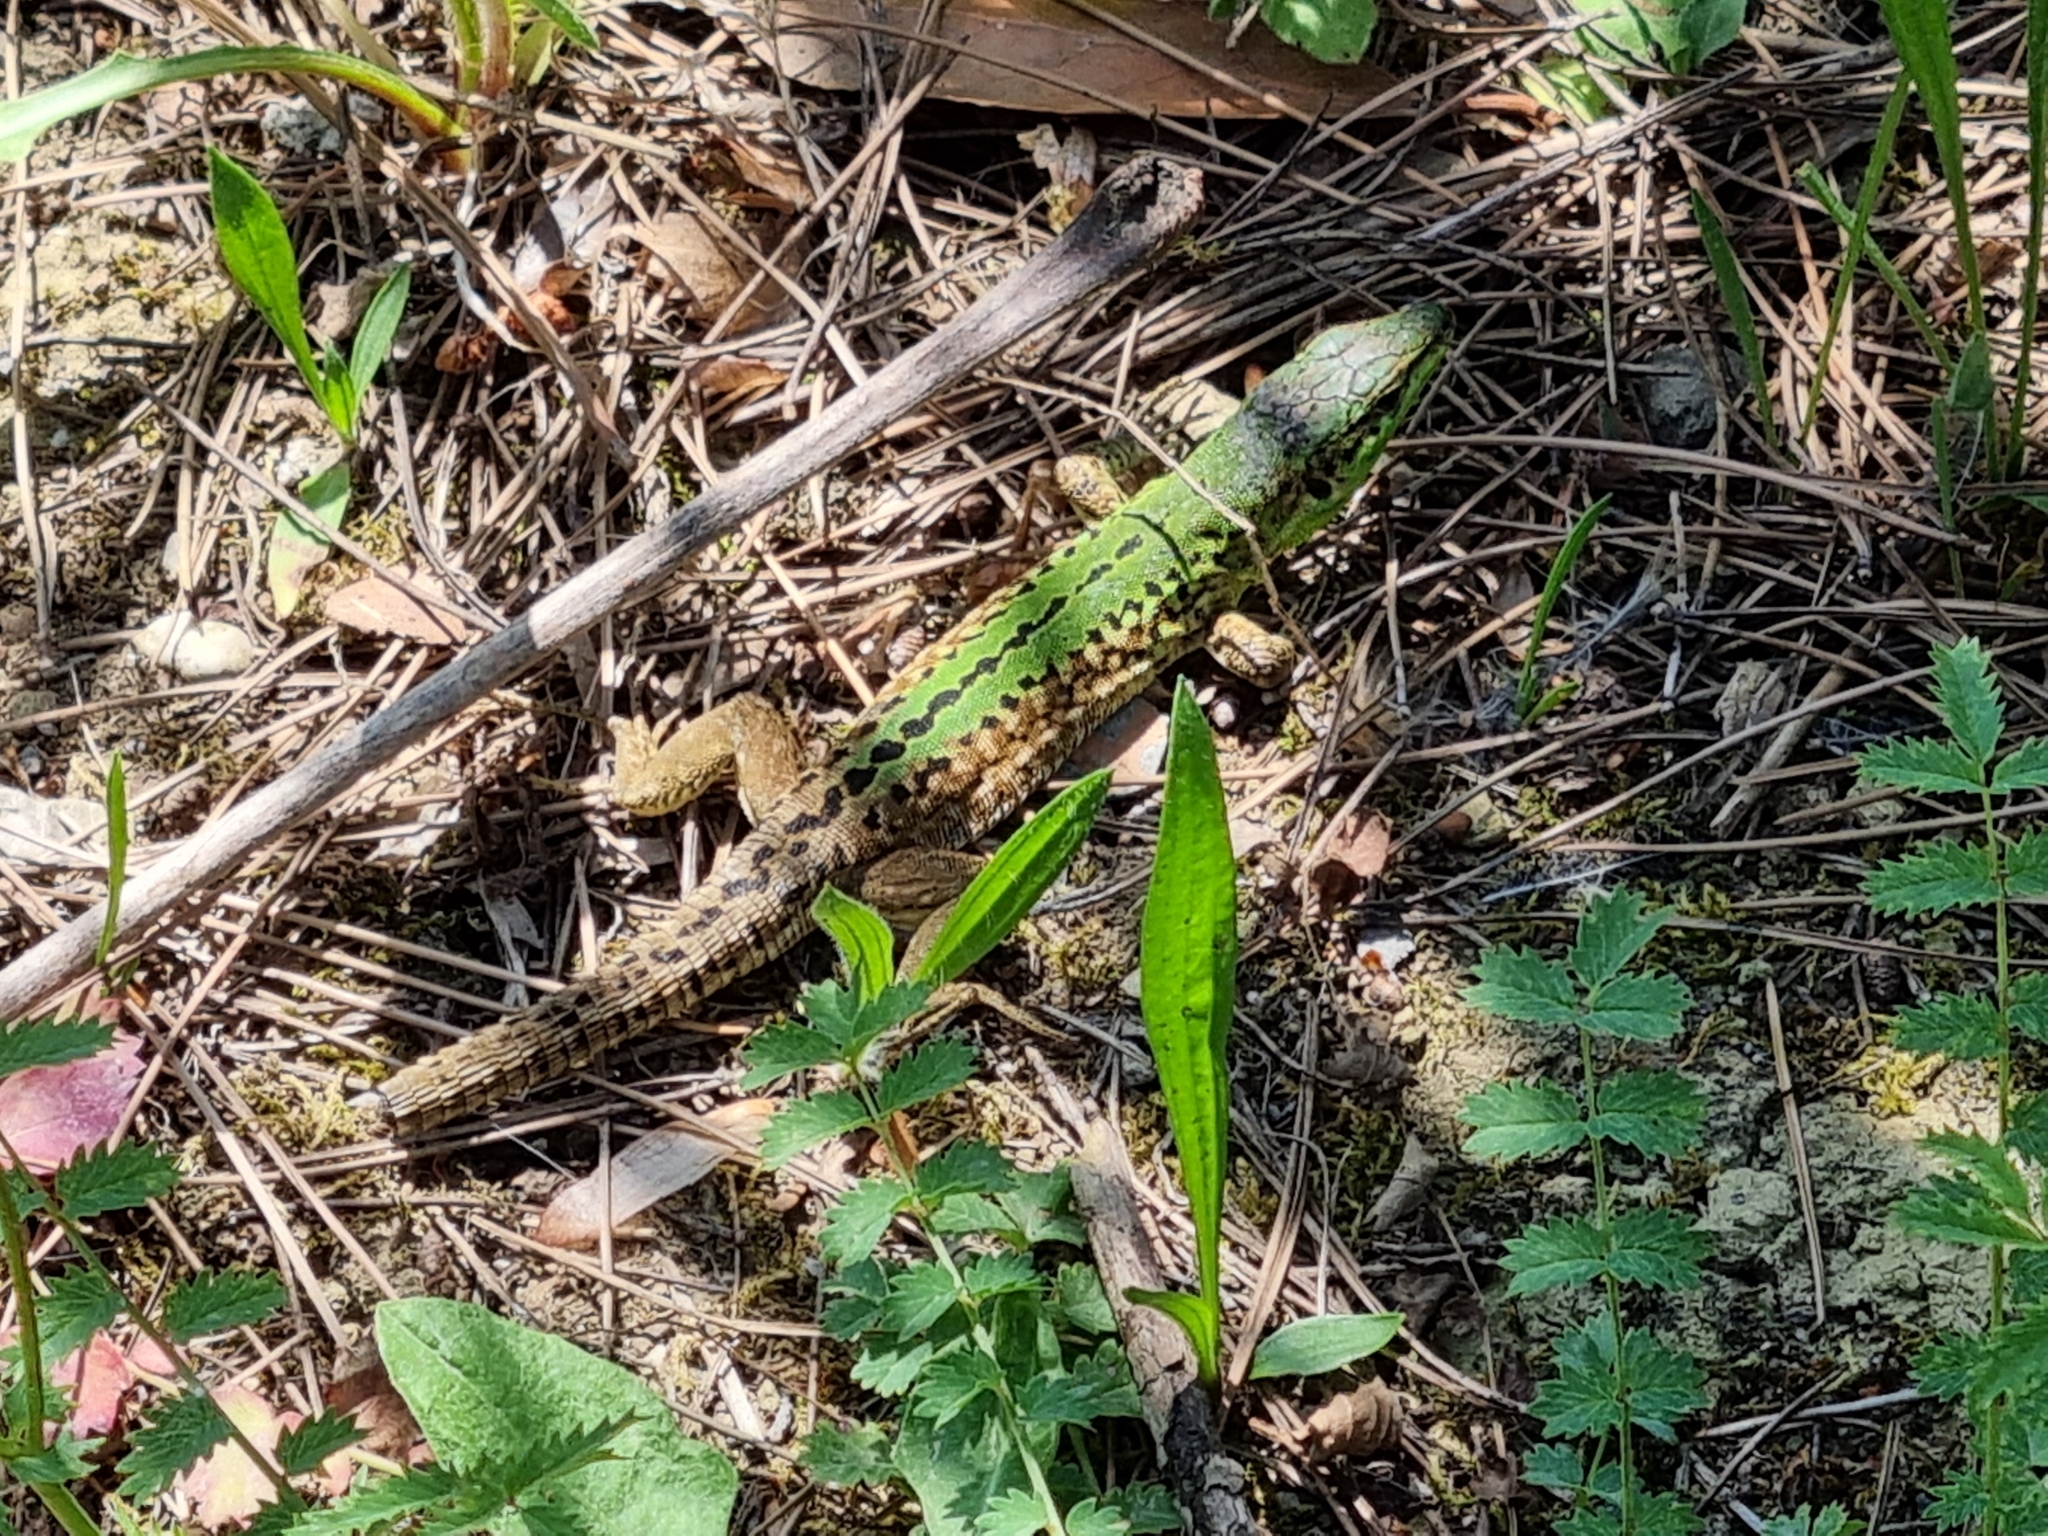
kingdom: Animalia
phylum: Chordata
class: Squamata
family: Lacertidae
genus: Podarcis
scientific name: Podarcis siculus
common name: Italian wall lizard
